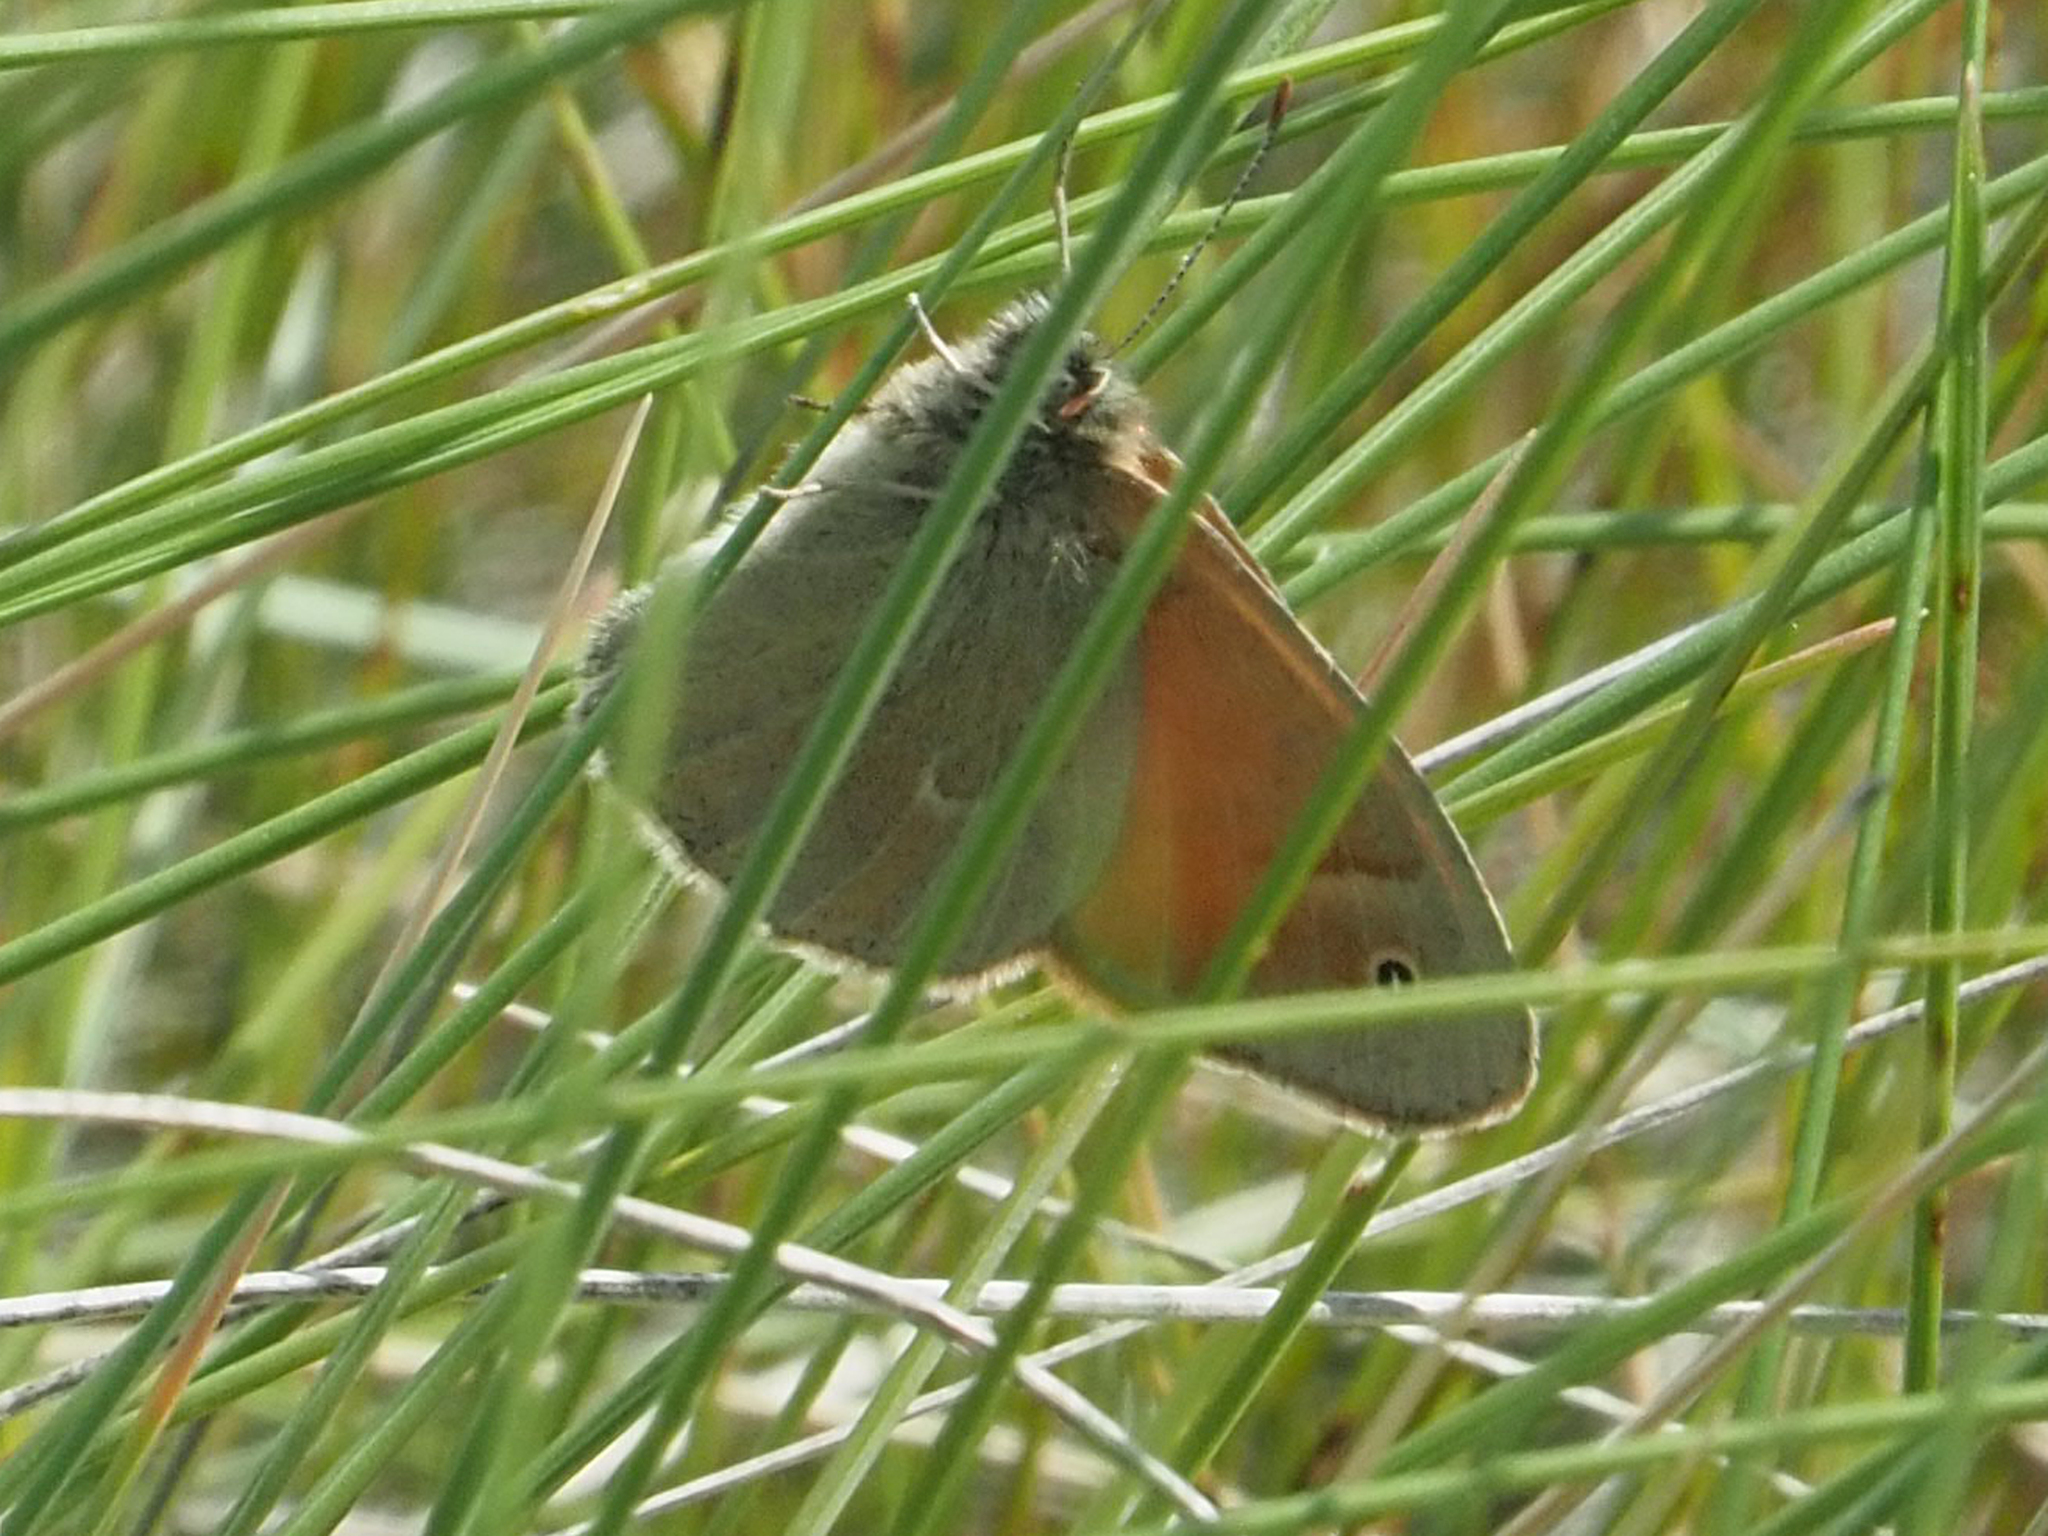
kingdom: Animalia
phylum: Arthropoda
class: Insecta
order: Lepidoptera
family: Nymphalidae
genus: Coenonympha
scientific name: Coenonympha california
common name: Common ringlet
